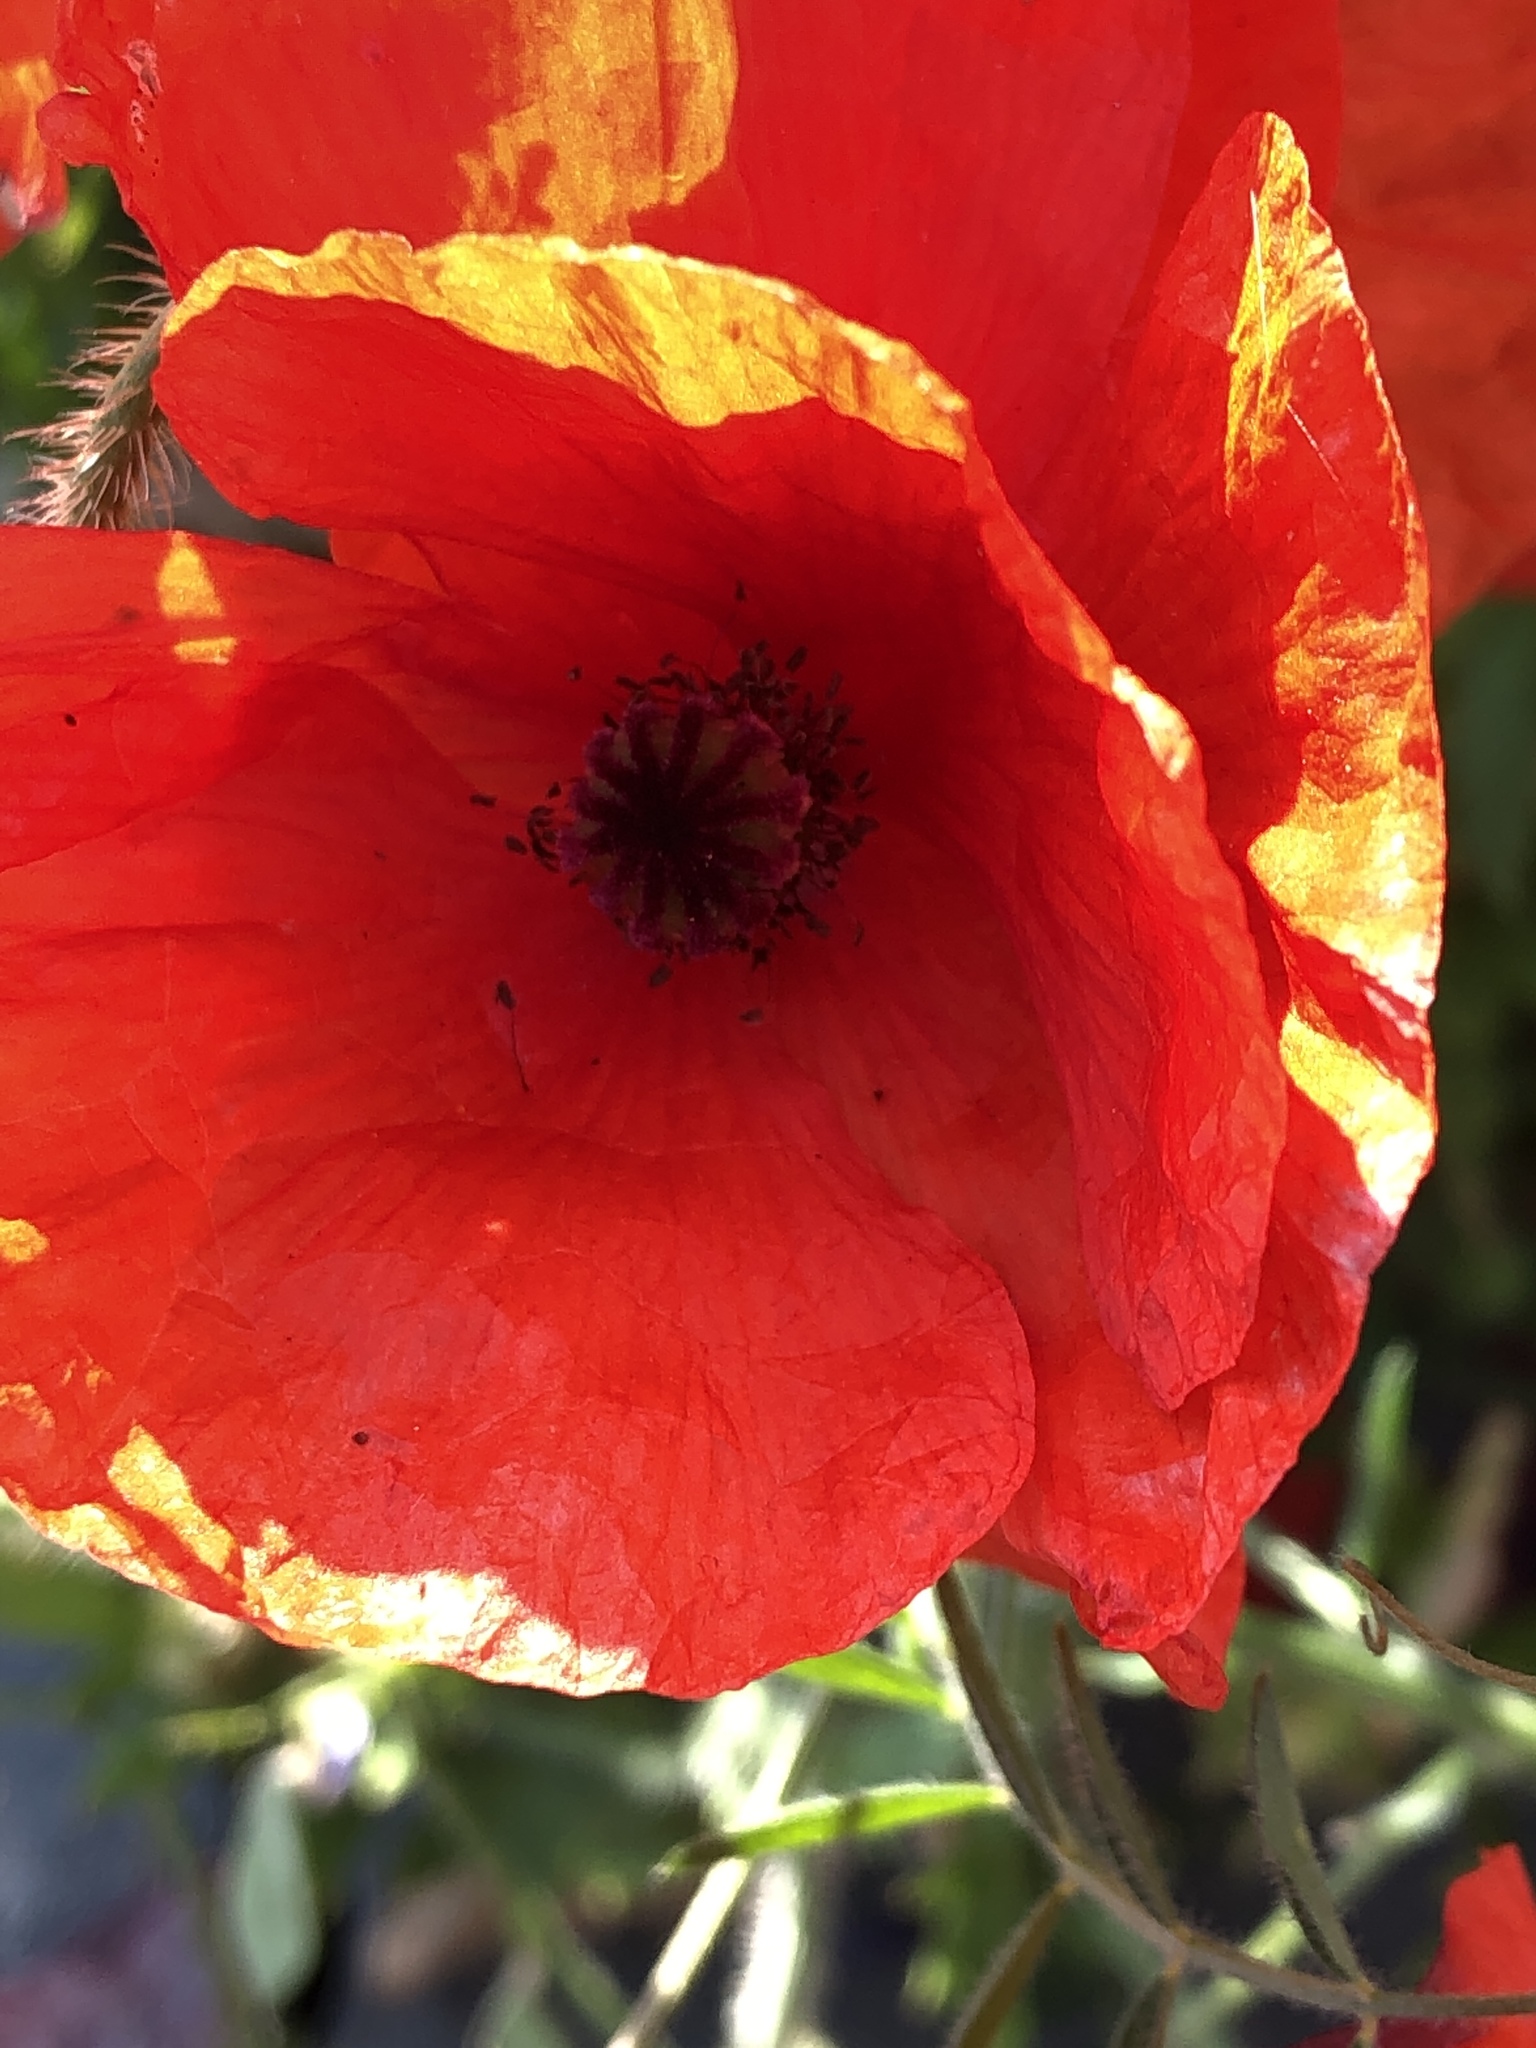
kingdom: Plantae
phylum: Tracheophyta
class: Magnoliopsida
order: Ranunculales
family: Papaveraceae
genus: Papaver
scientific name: Papaver rhoeas
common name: Corn poppy
